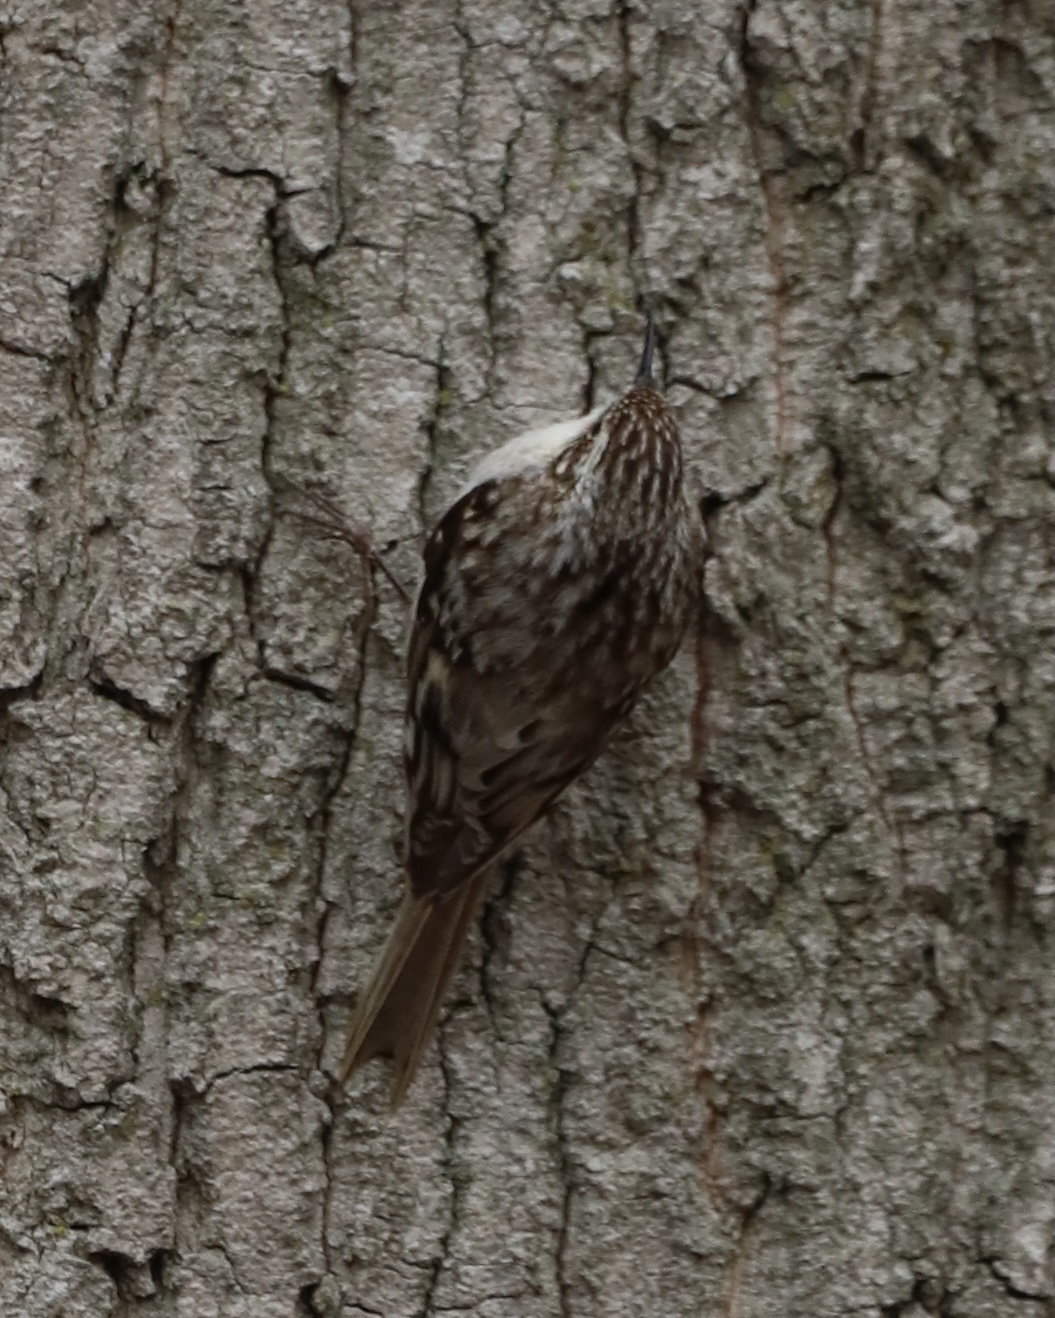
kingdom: Animalia
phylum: Chordata
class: Aves
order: Passeriformes
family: Certhiidae
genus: Certhia
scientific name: Certhia americana
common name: Brown creeper
